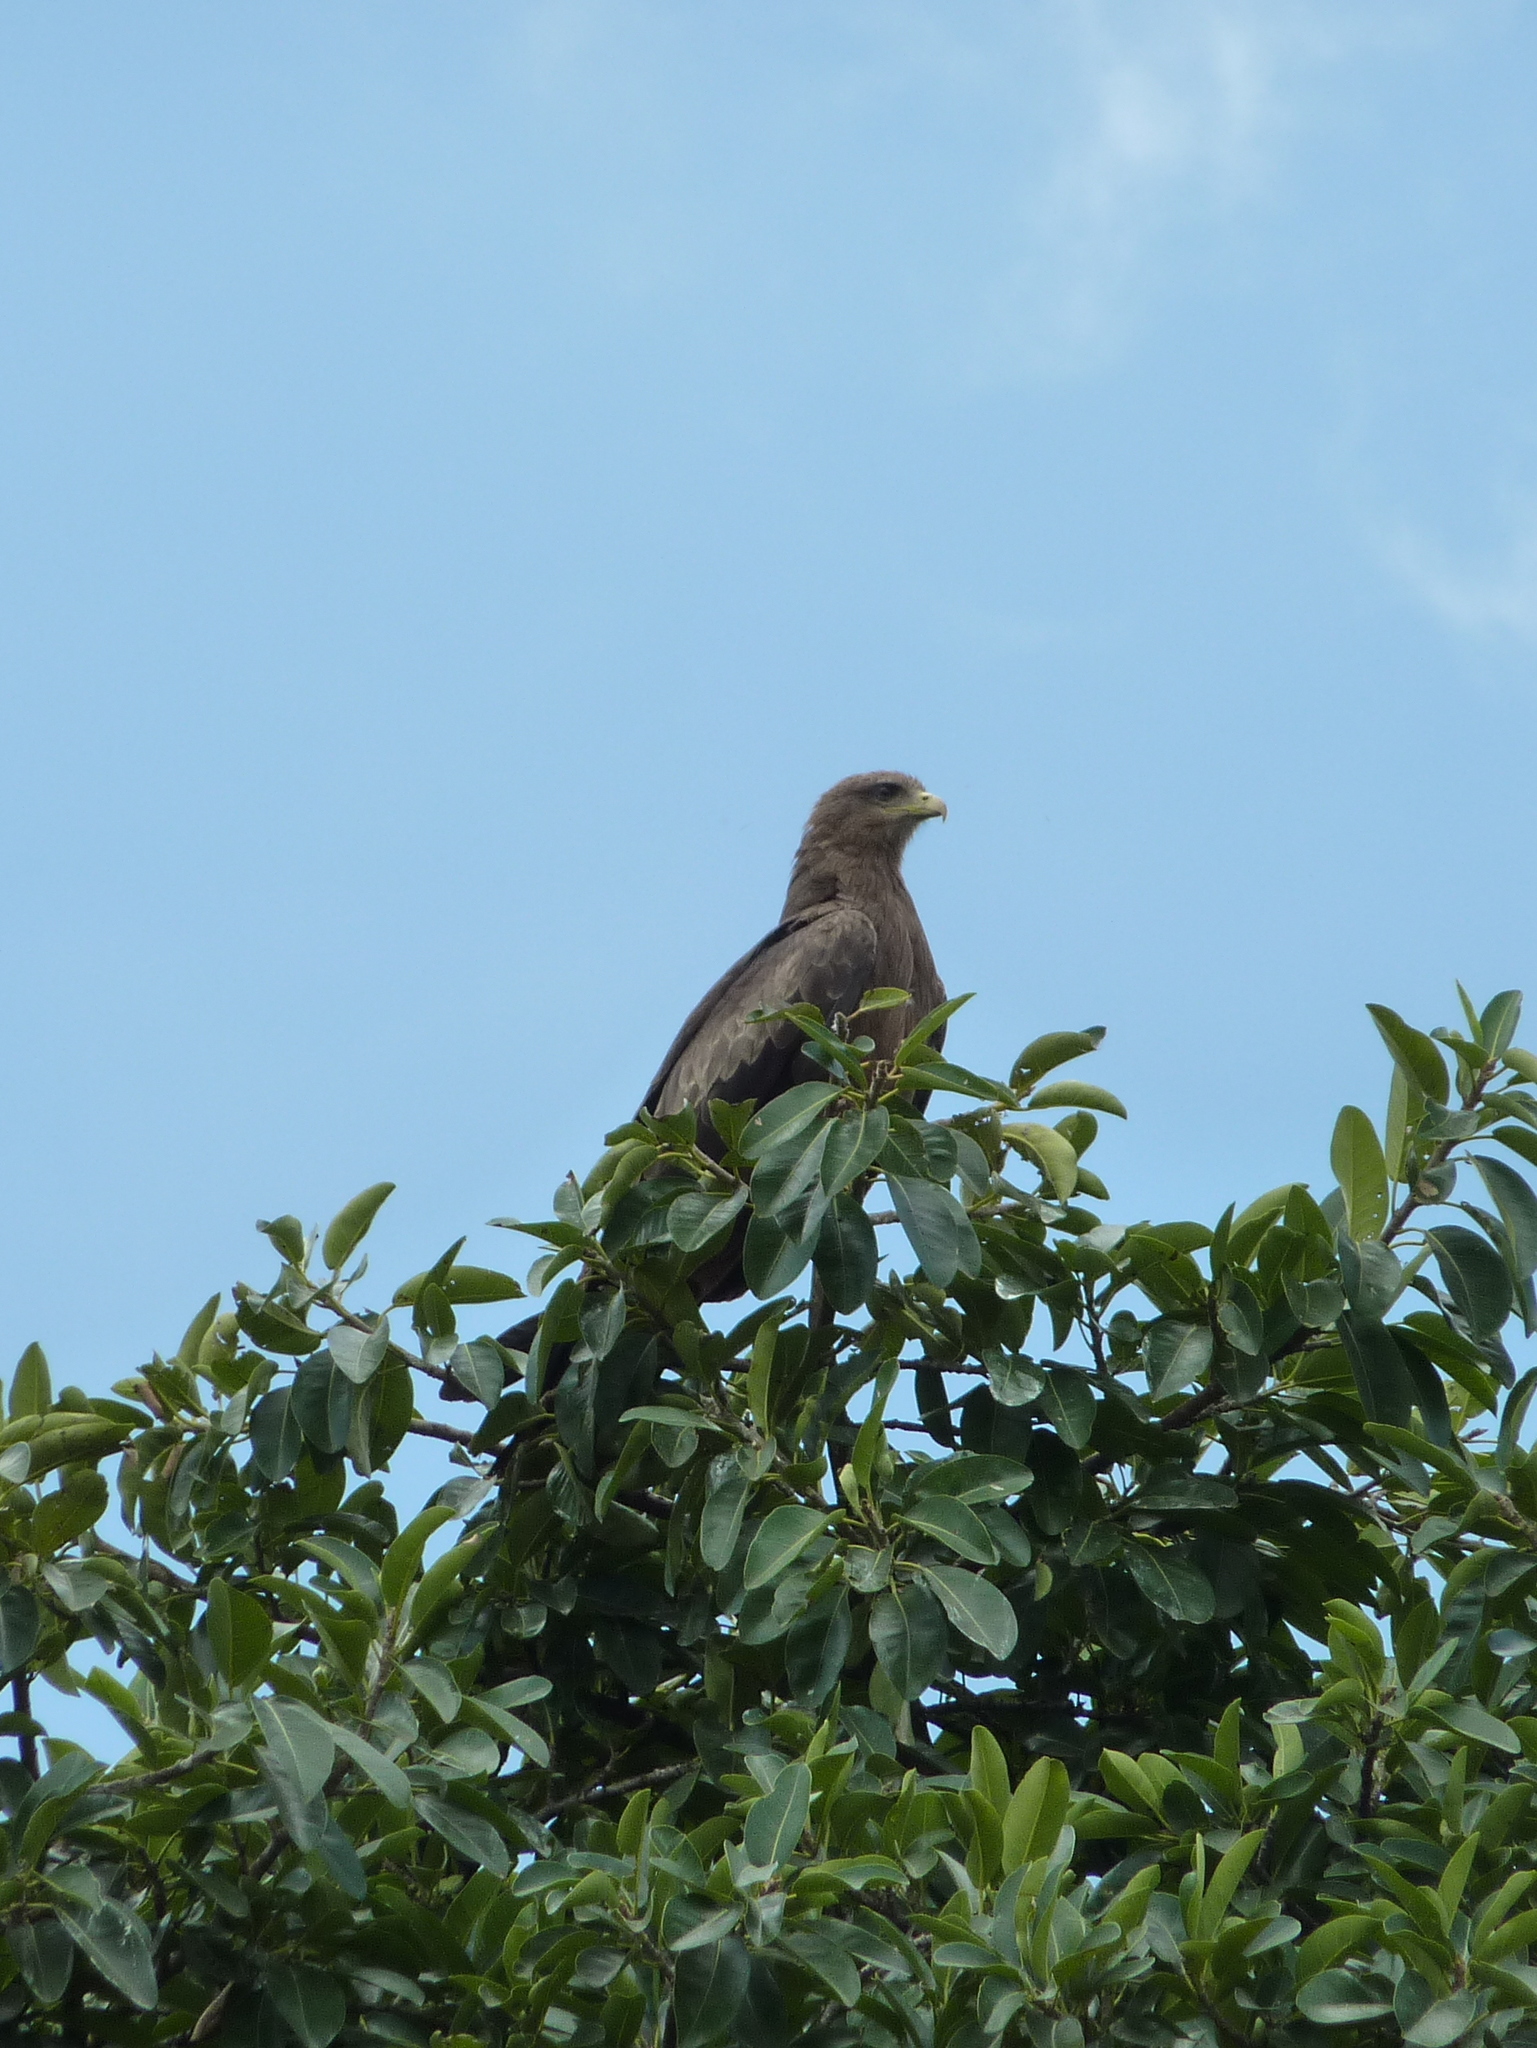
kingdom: Animalia
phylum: Chordata
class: Aves
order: Accipitriformes
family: Accipitridae
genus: Milvus
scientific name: Milvus migrans
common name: Black kite
